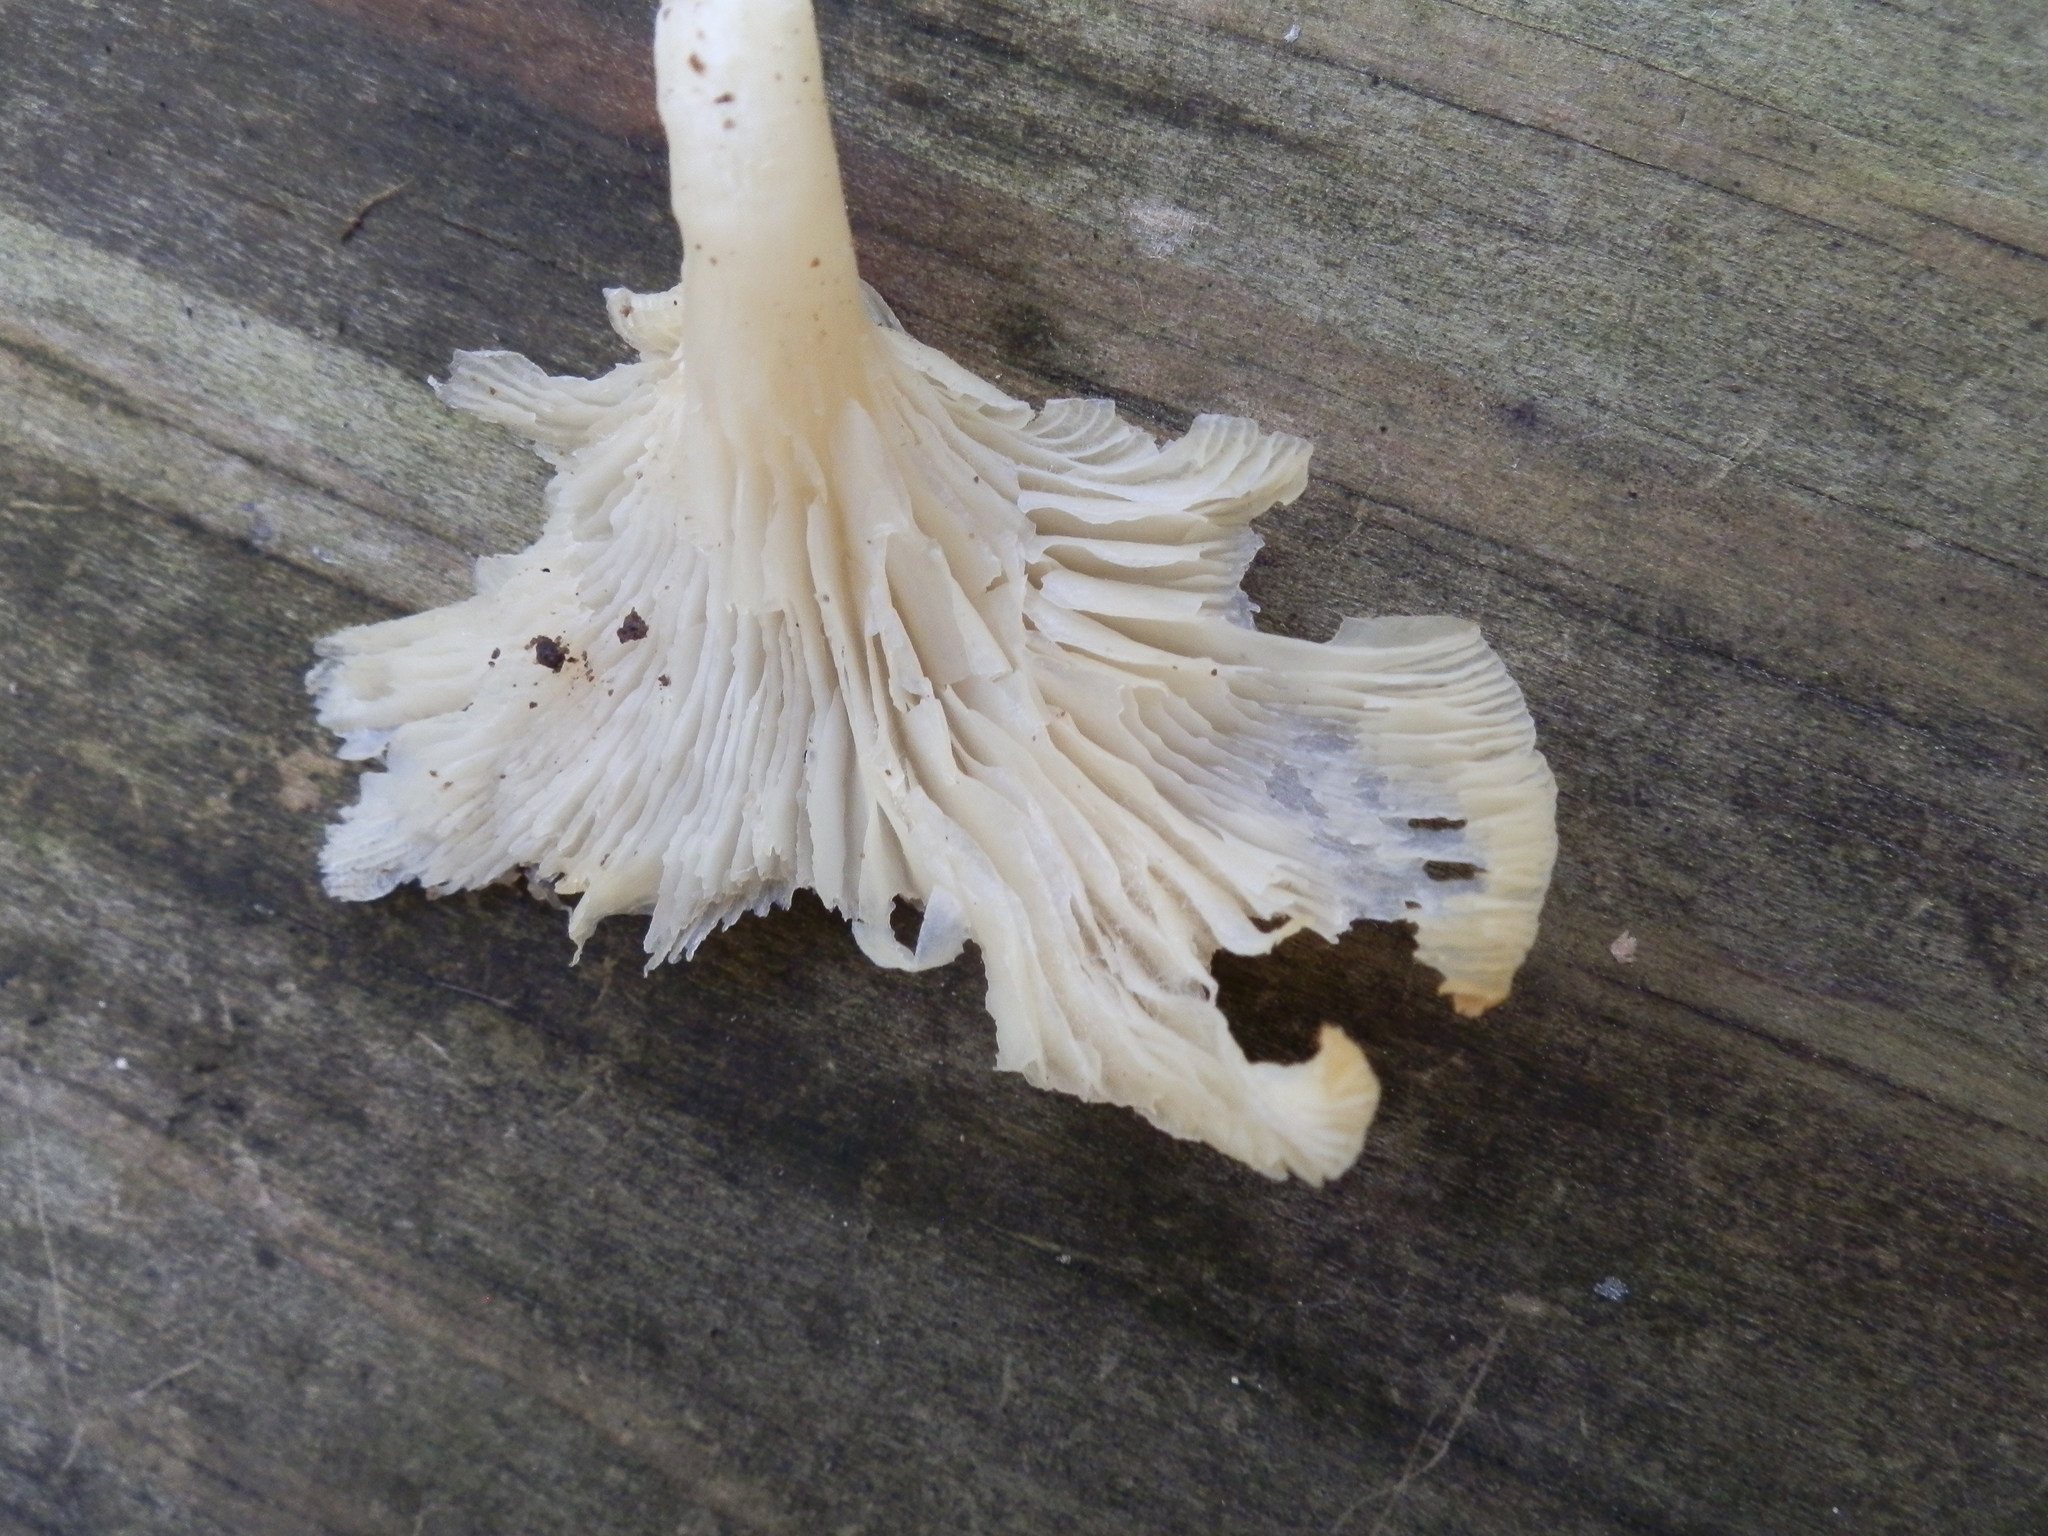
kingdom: Fungi
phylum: Basidiomycota
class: Agaricomycetes
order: Agaricales
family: Marasmiaceae
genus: Pleurocybella
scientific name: Pleurocybella porrigens
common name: Angel's wings
